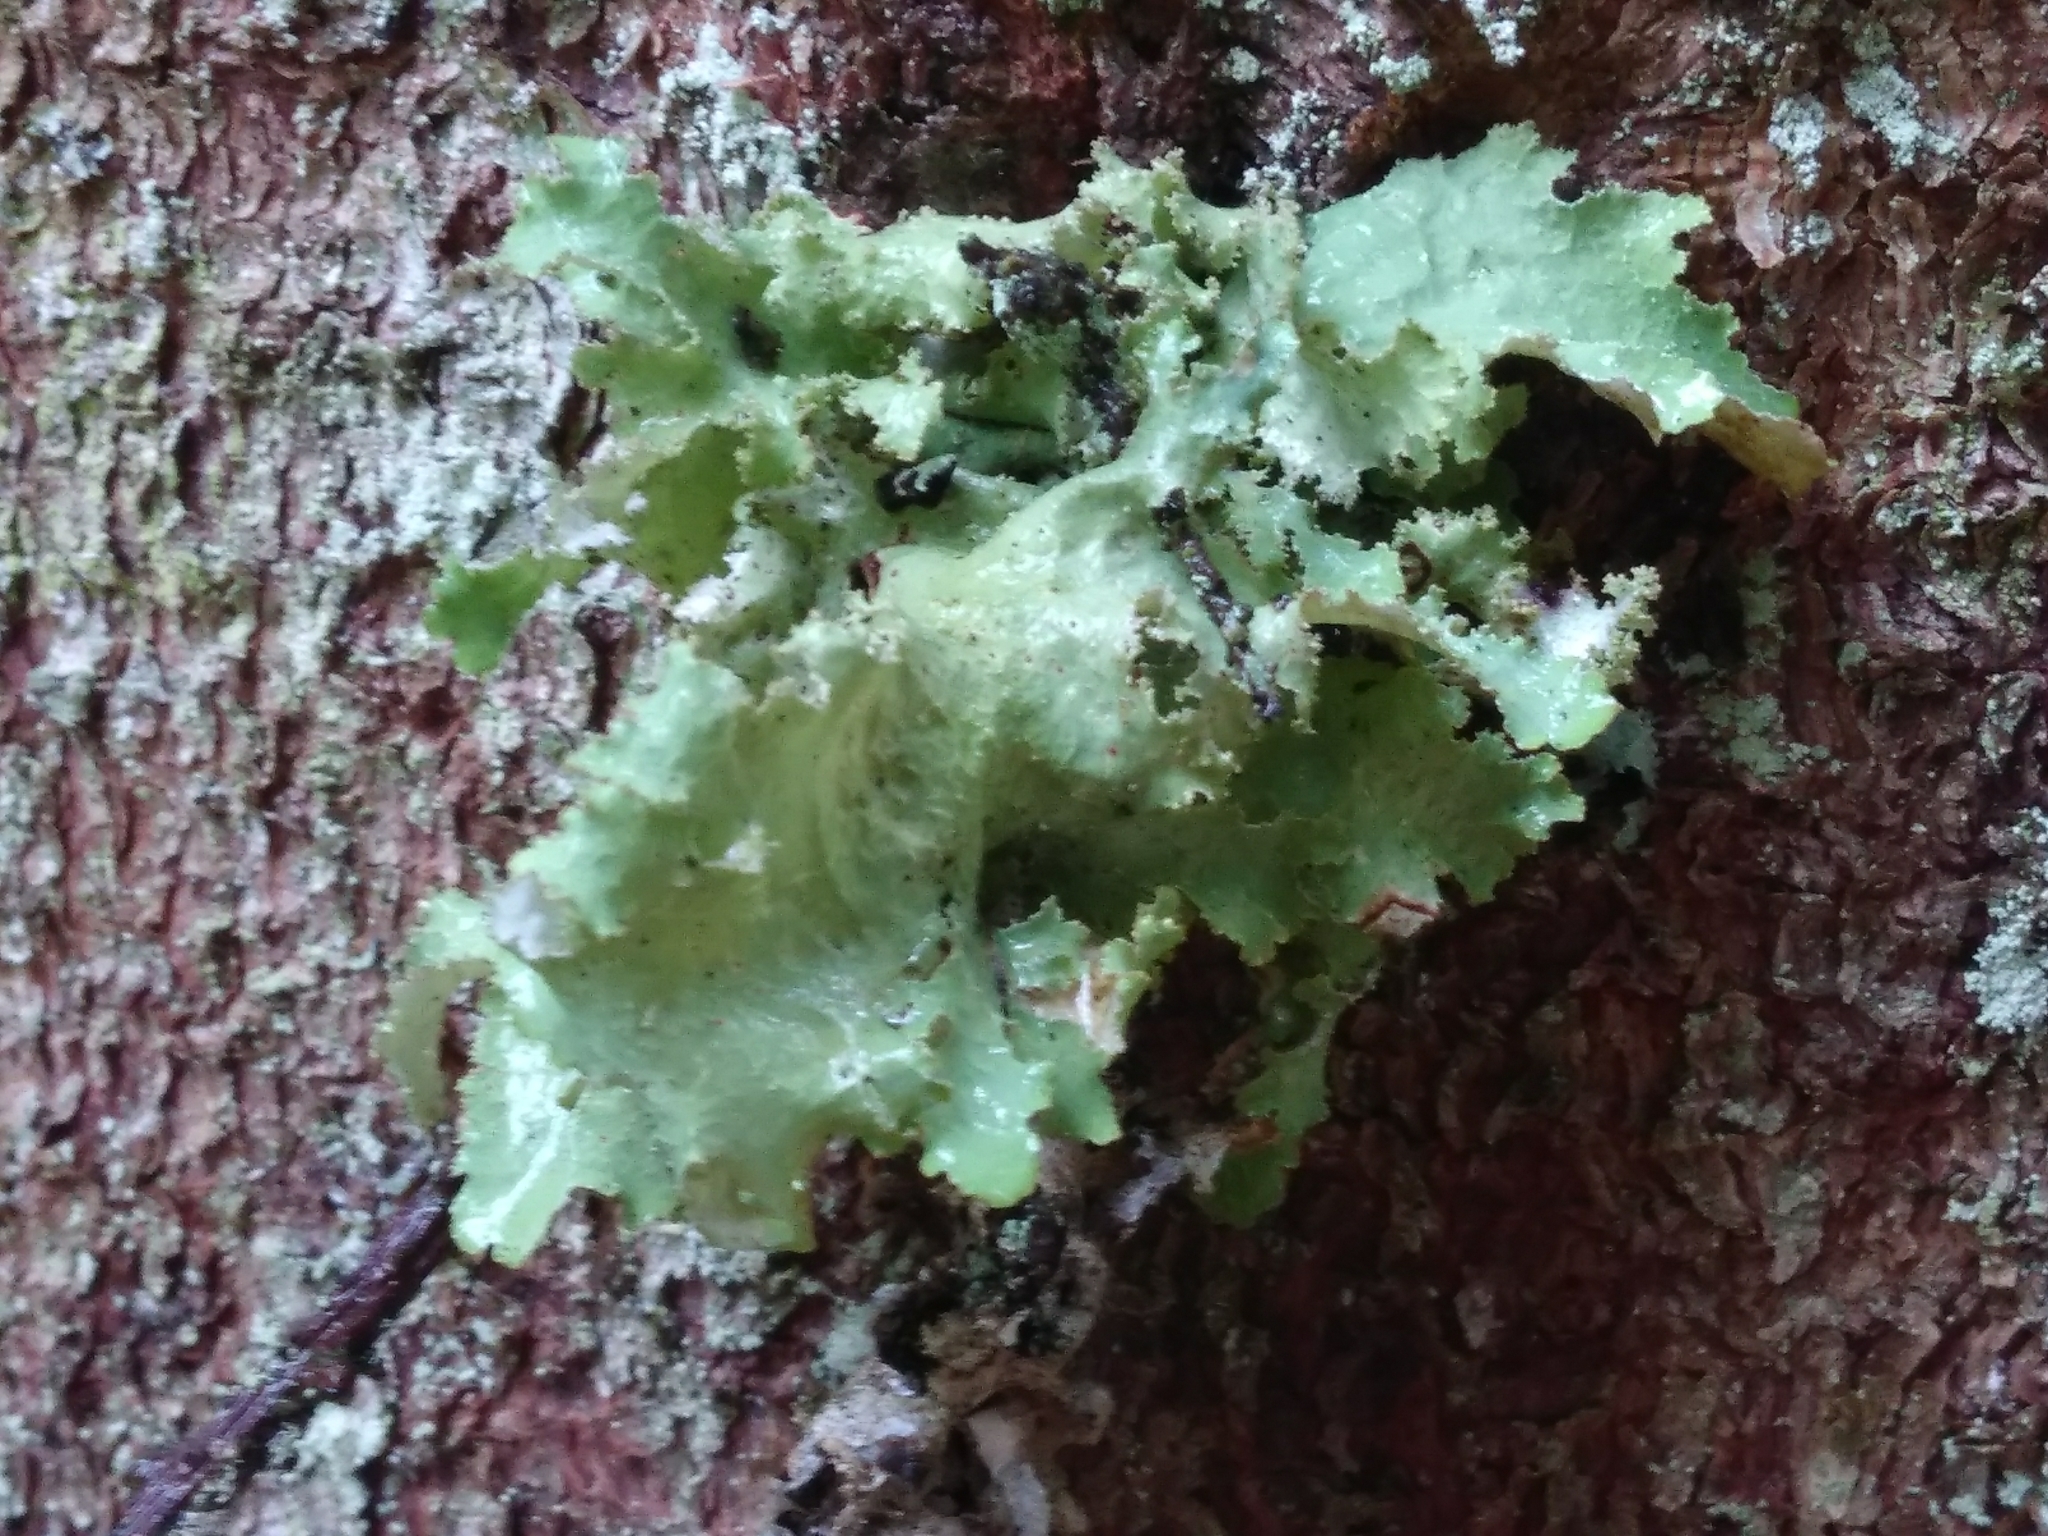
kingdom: Fungi
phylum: Ascomycota
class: Lecanoromycetes
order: Lecanorales
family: Parmeliaceae
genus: Platismatia
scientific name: Platismatia glauca
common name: Varied rag lichen
